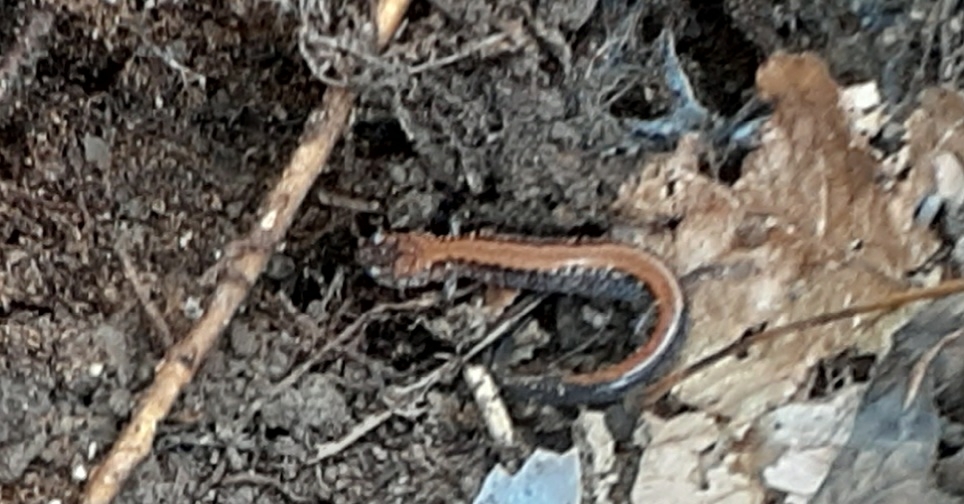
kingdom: Animalia
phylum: Chordata
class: Amphibia
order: Caudata
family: Plethodontidae
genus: Plethodon
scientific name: Plethodon cinereus
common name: Redback salamander
